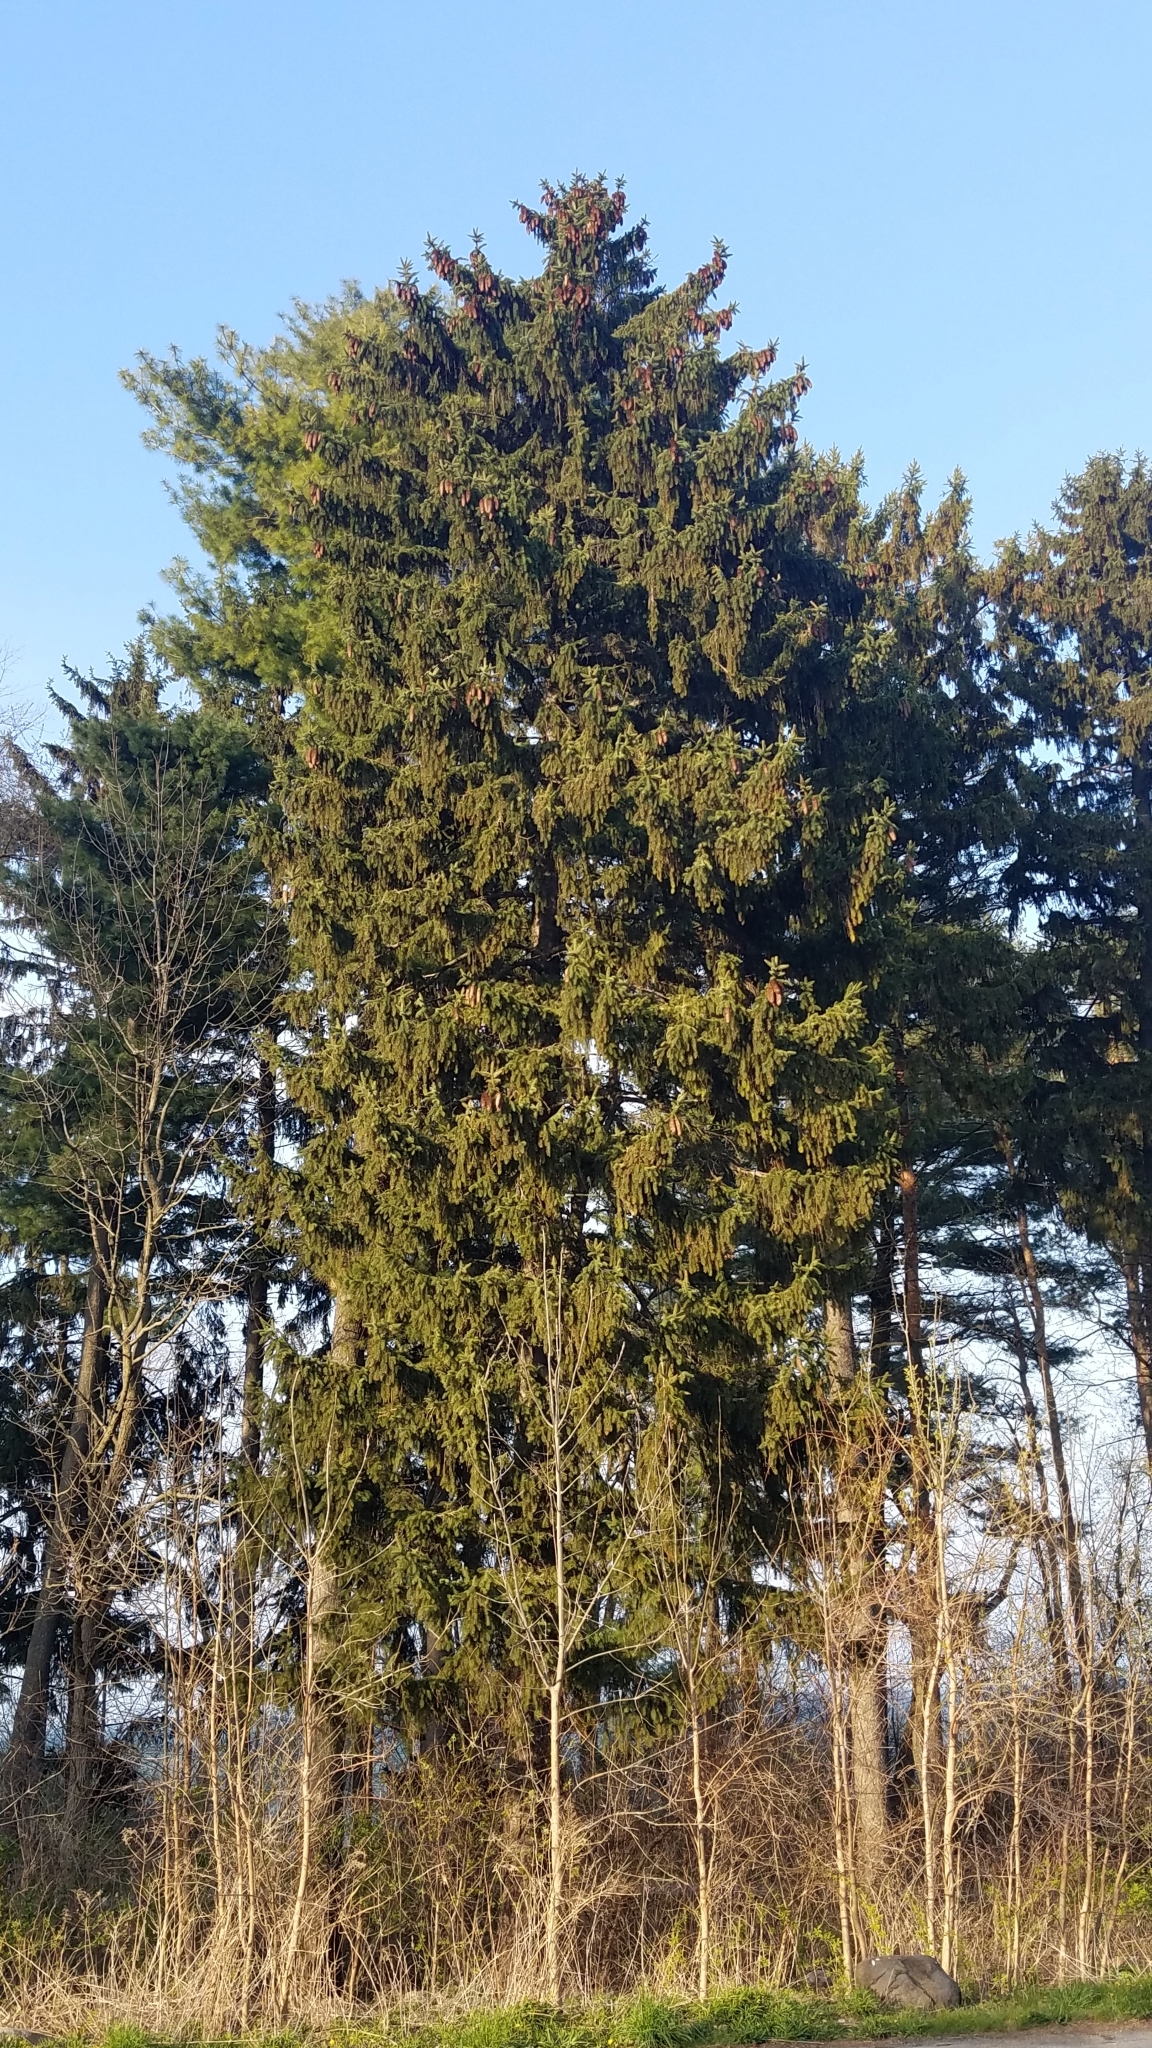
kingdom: Plantae
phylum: Tracheophyta
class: Pinopsida
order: Pinales
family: Pinaceae
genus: Picea
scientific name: Picea abies
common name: Norway spruce
